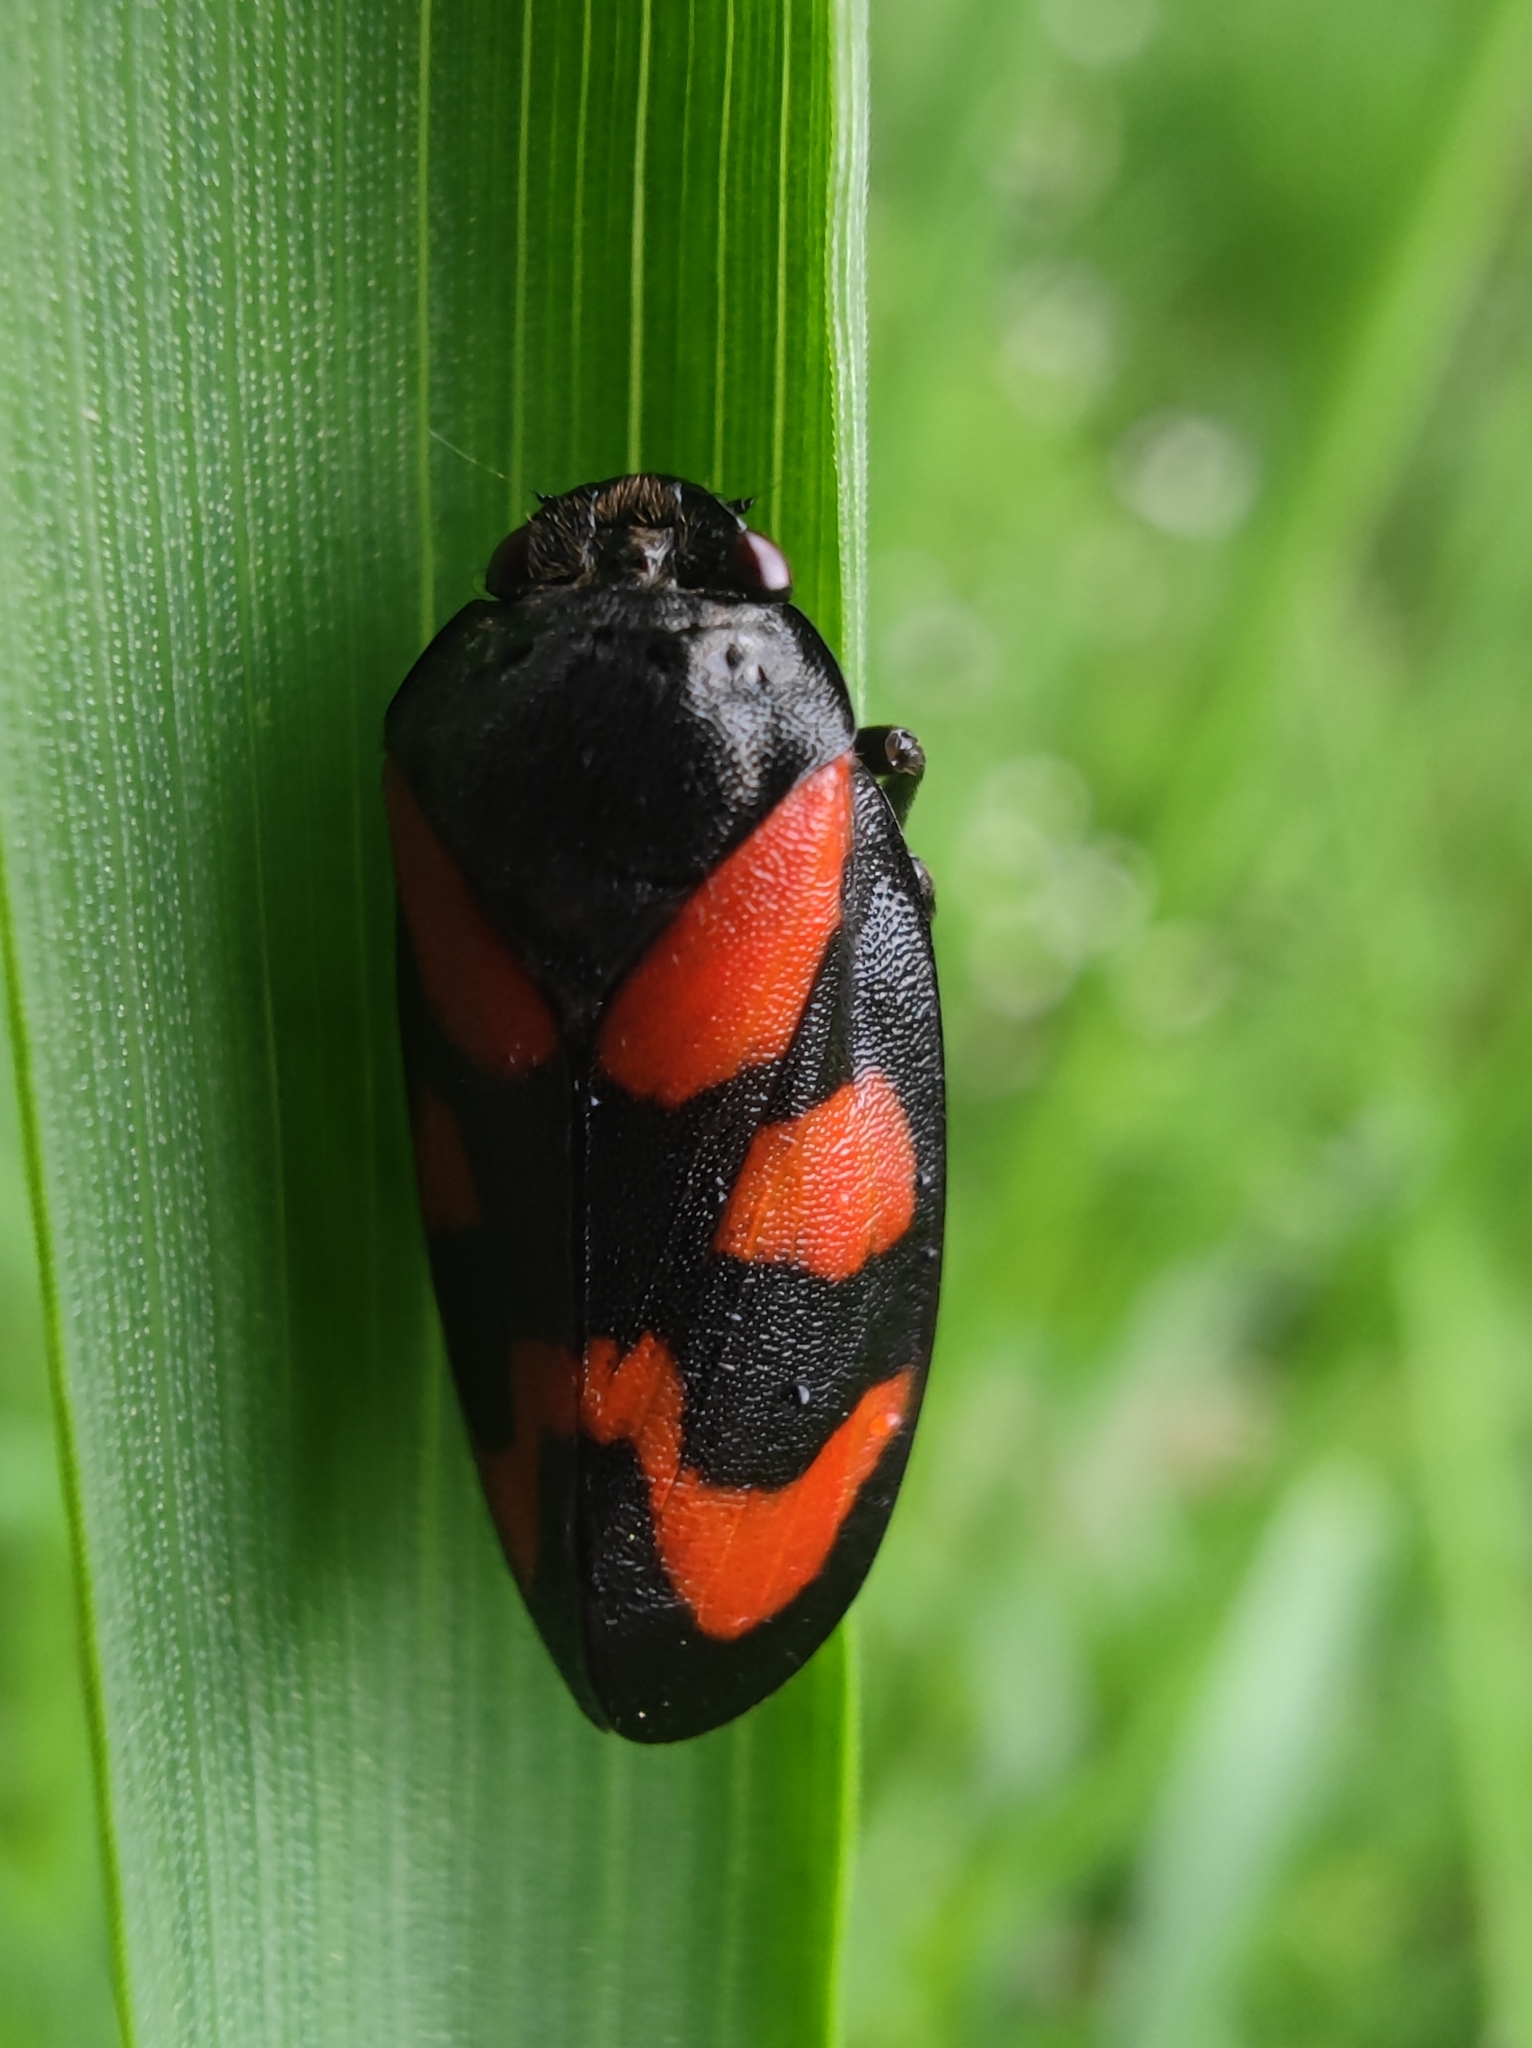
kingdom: Animalia
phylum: Arthropoda
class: Insecta
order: Hemiptera
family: Cercopidae
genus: Cercopis
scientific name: Cercopis vulnerata
